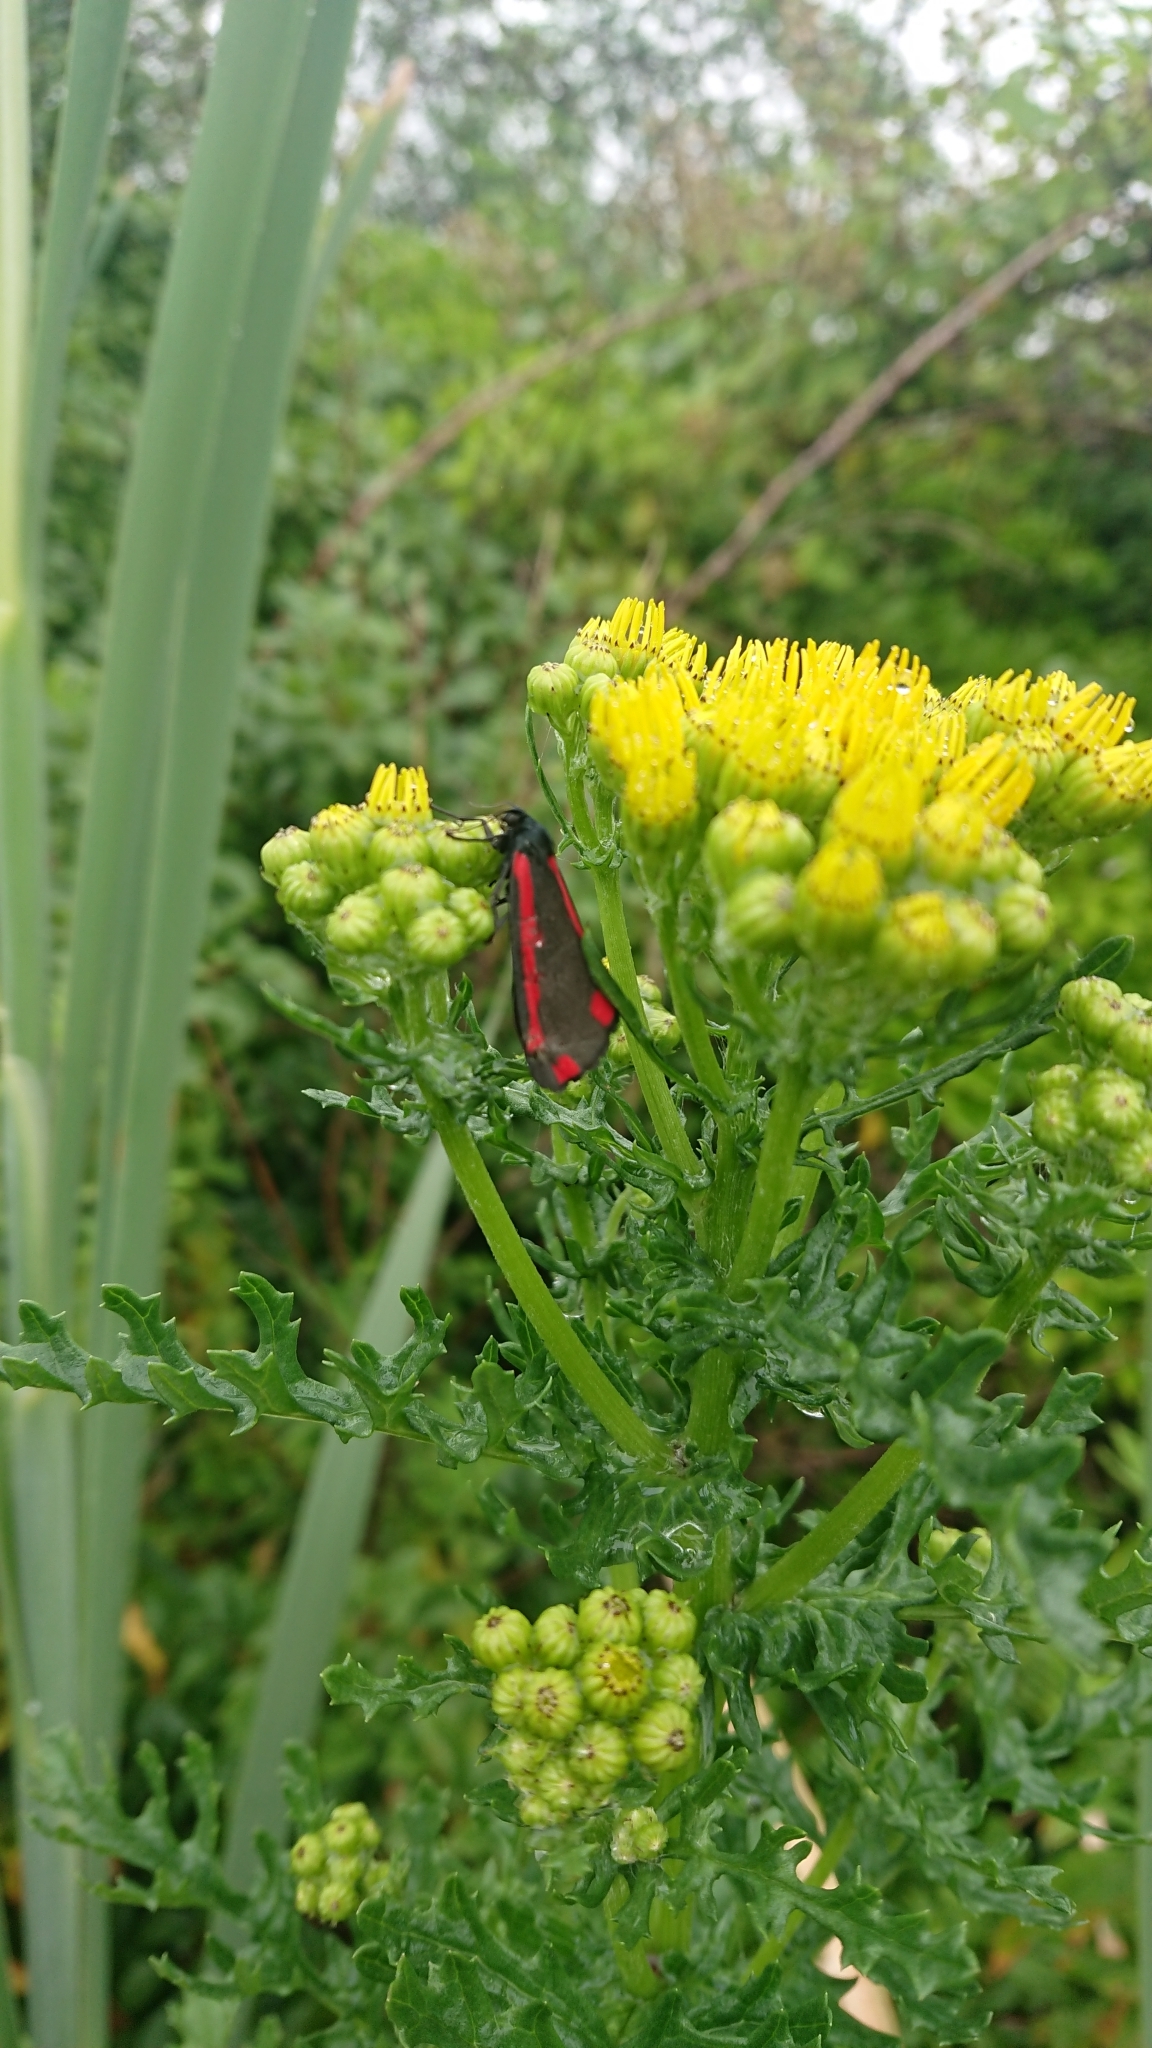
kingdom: Animalia
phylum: Arthropoda
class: Insecta
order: Lepidoptera
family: Erebidae
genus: Tyria
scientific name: Tyria jacobaeae
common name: Cinnabar
